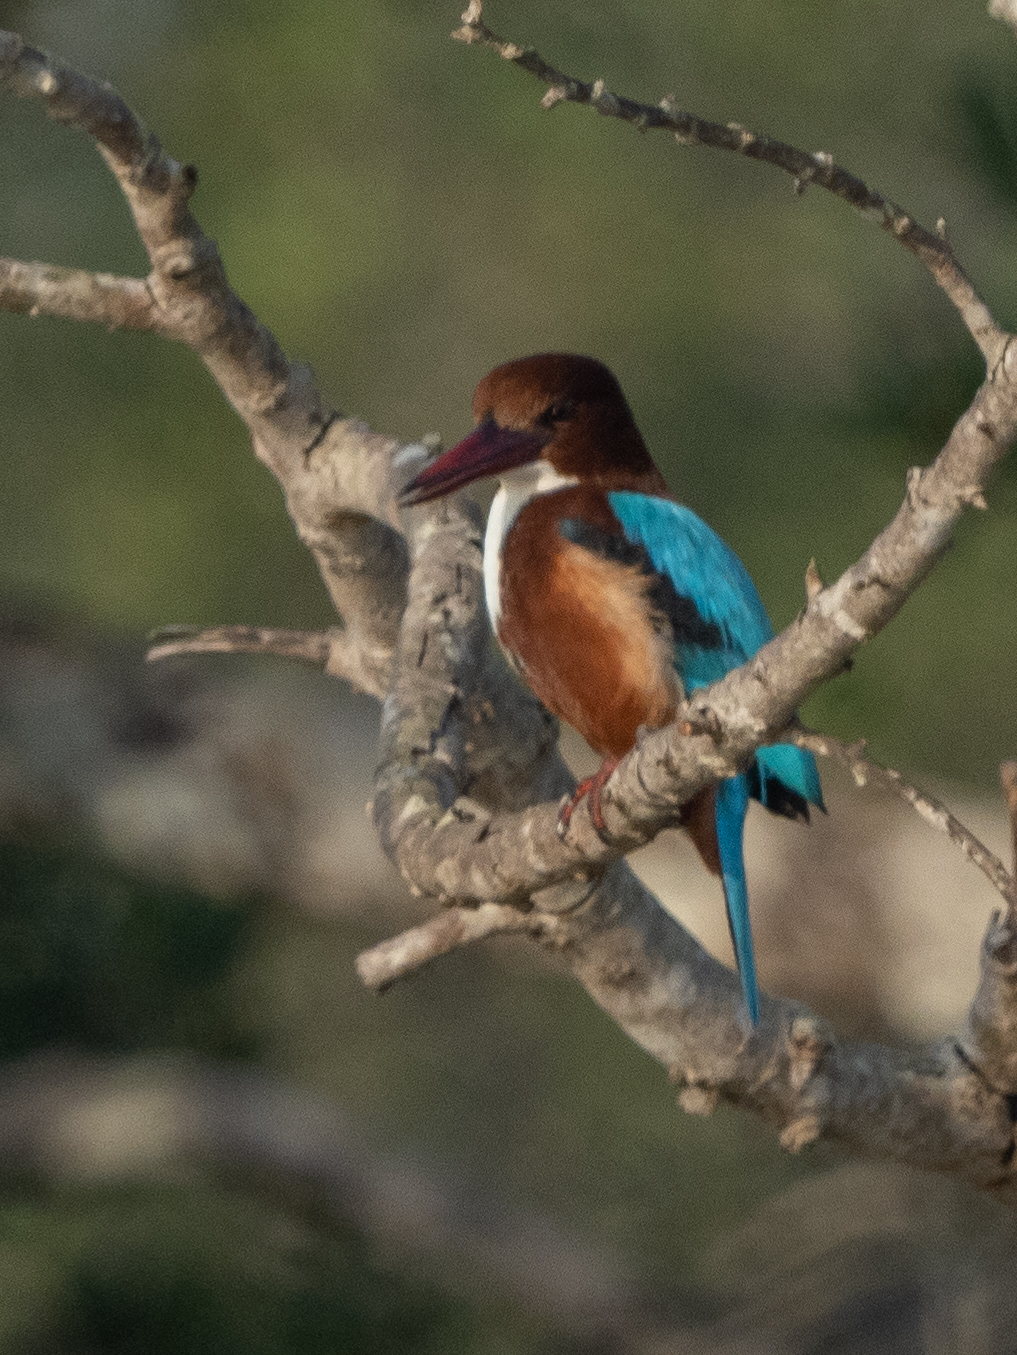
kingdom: Animalia
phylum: Chordata
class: Aves
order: Coraciiformes
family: Alcedinidae
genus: Halcyon
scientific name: Halcyon smyrnensis
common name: White-throated kingfisher
